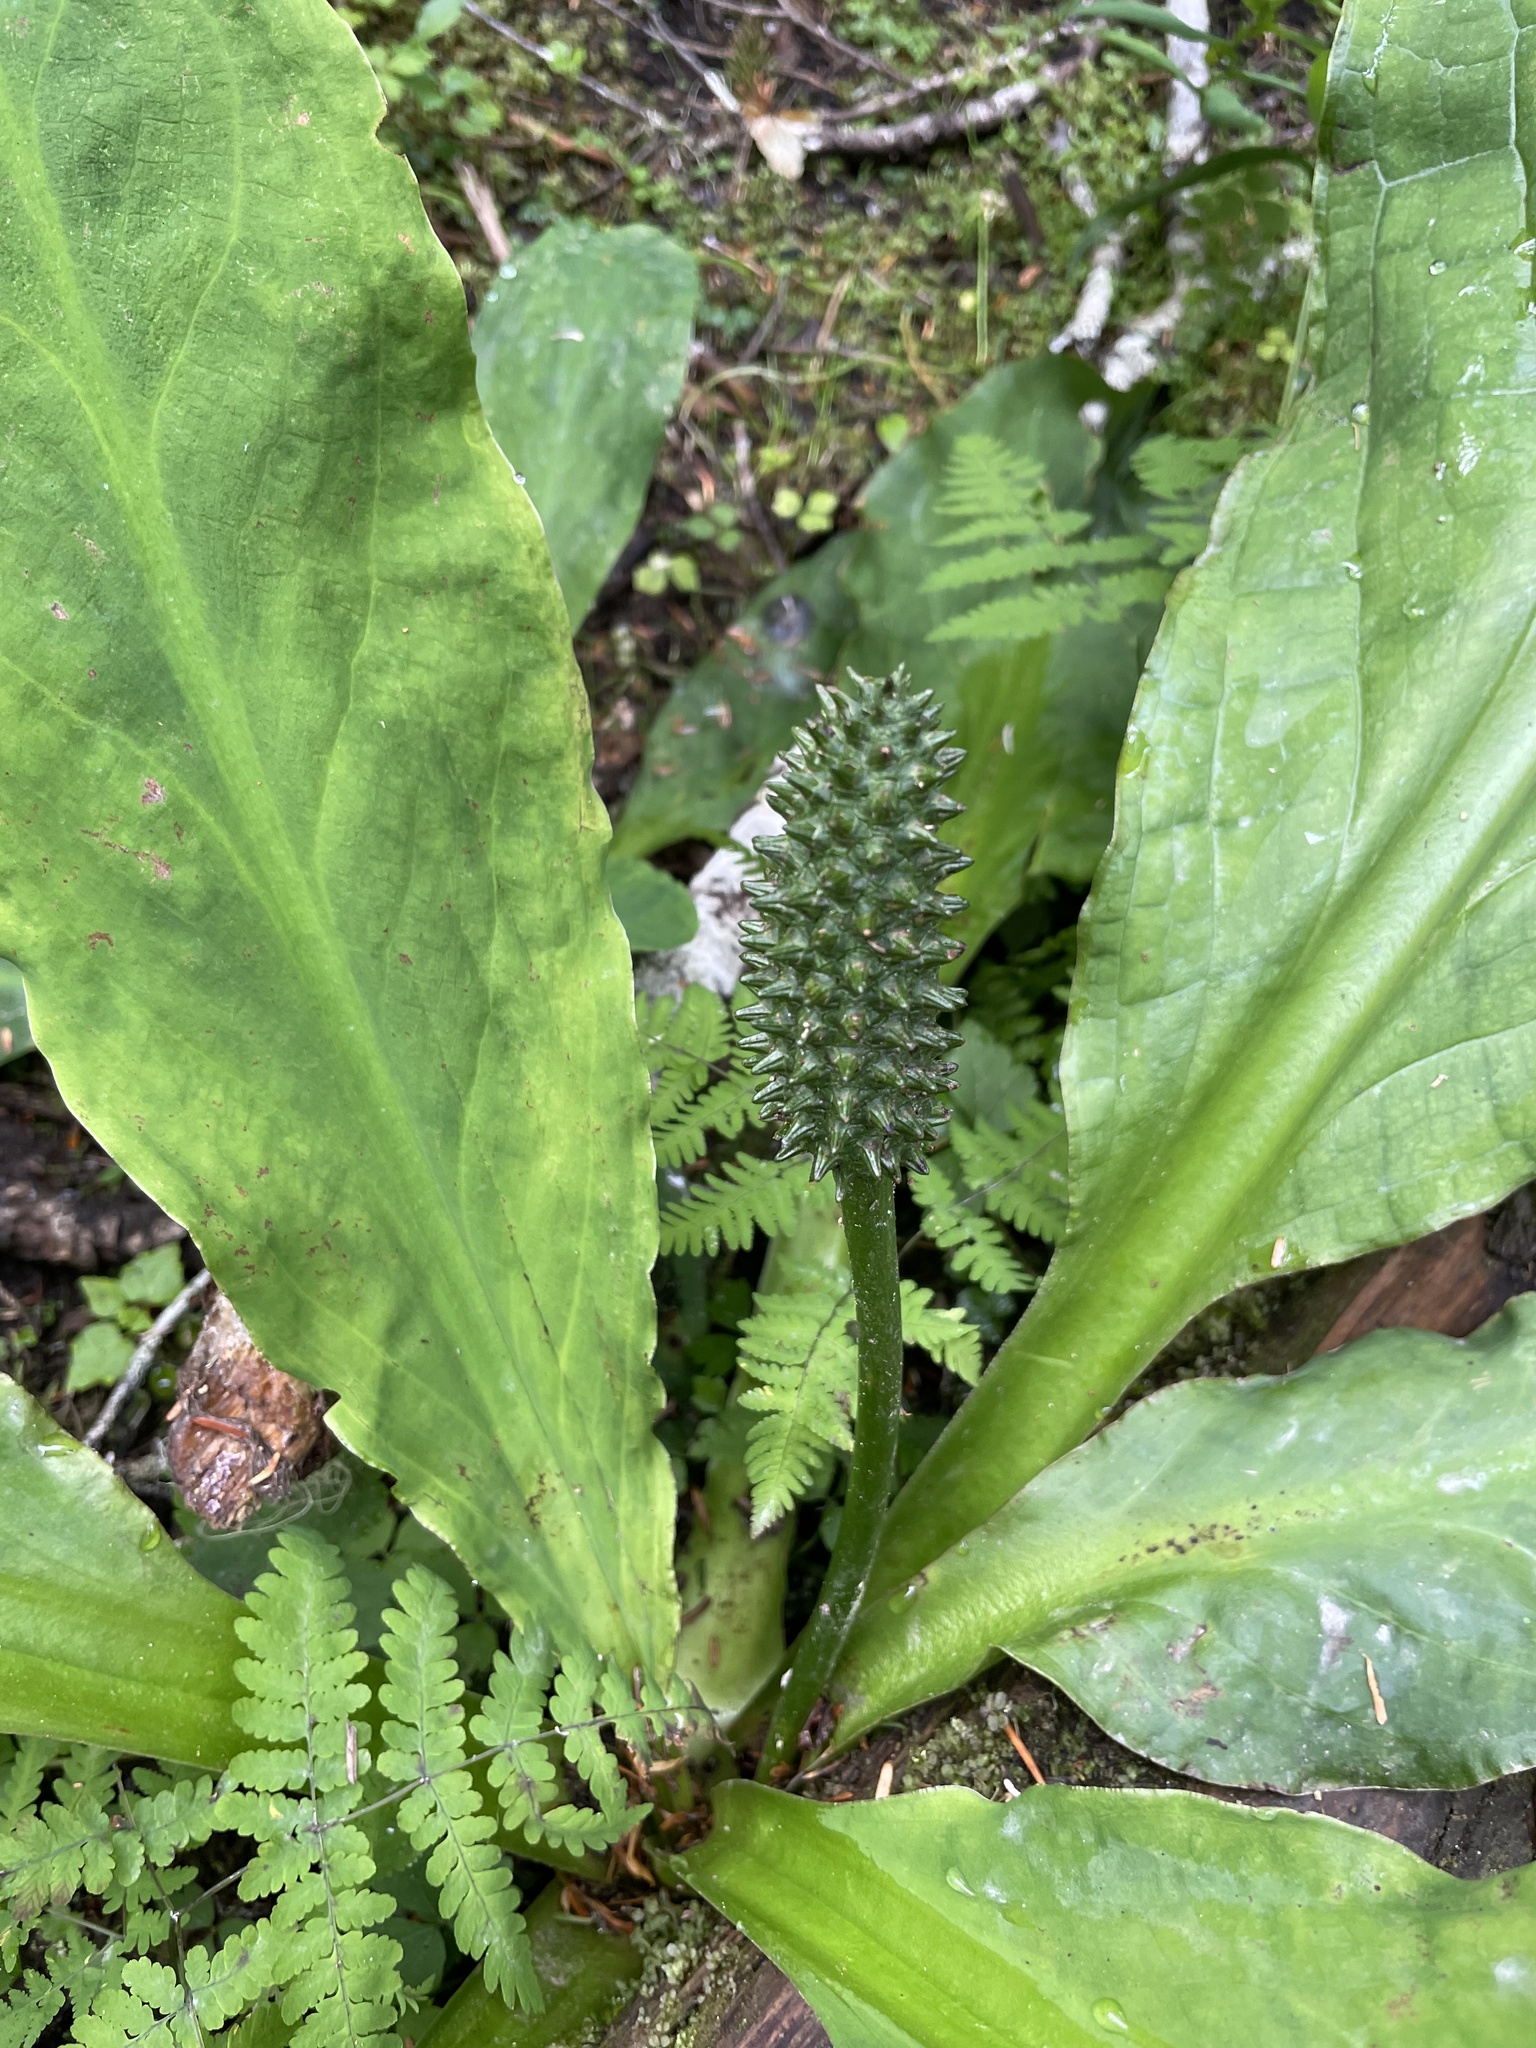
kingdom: Plantae
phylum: Tracheophyta
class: Liliopsida
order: Alismatales
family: Araceae
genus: Lysichiton
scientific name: Lysichiton americanus
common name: American skunk cabbage
